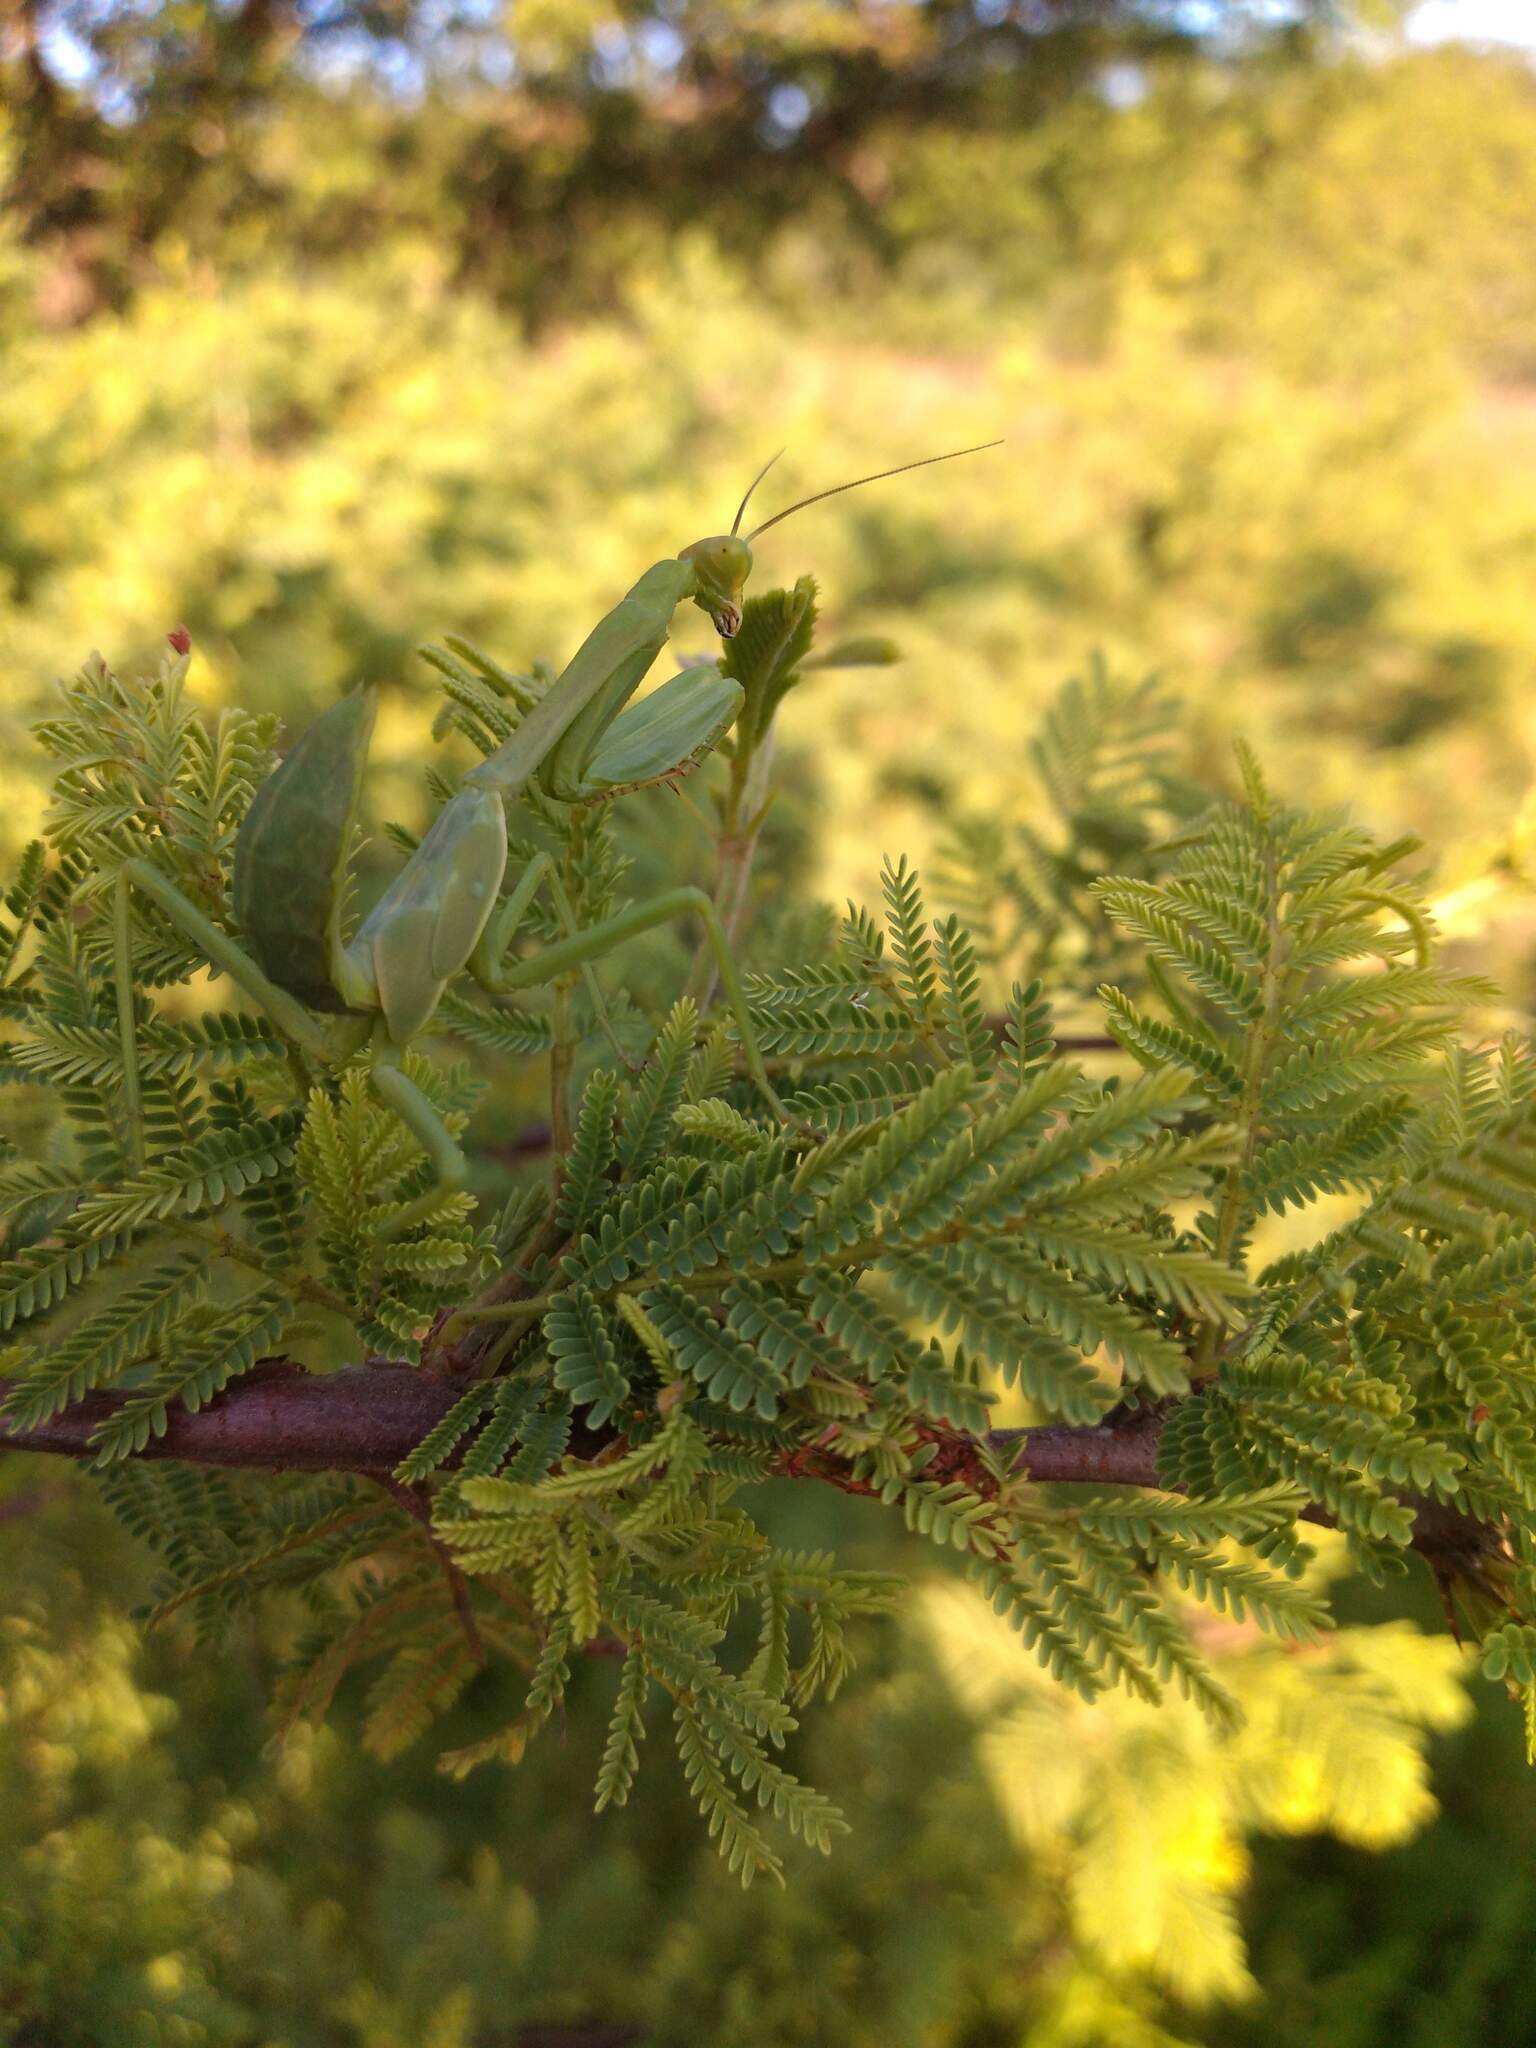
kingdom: Animalia
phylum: Arthropoda
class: Insecta
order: Mantodea
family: Mantidae
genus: Stagmatoptera
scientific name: Stagmatoptera hyaloptera
